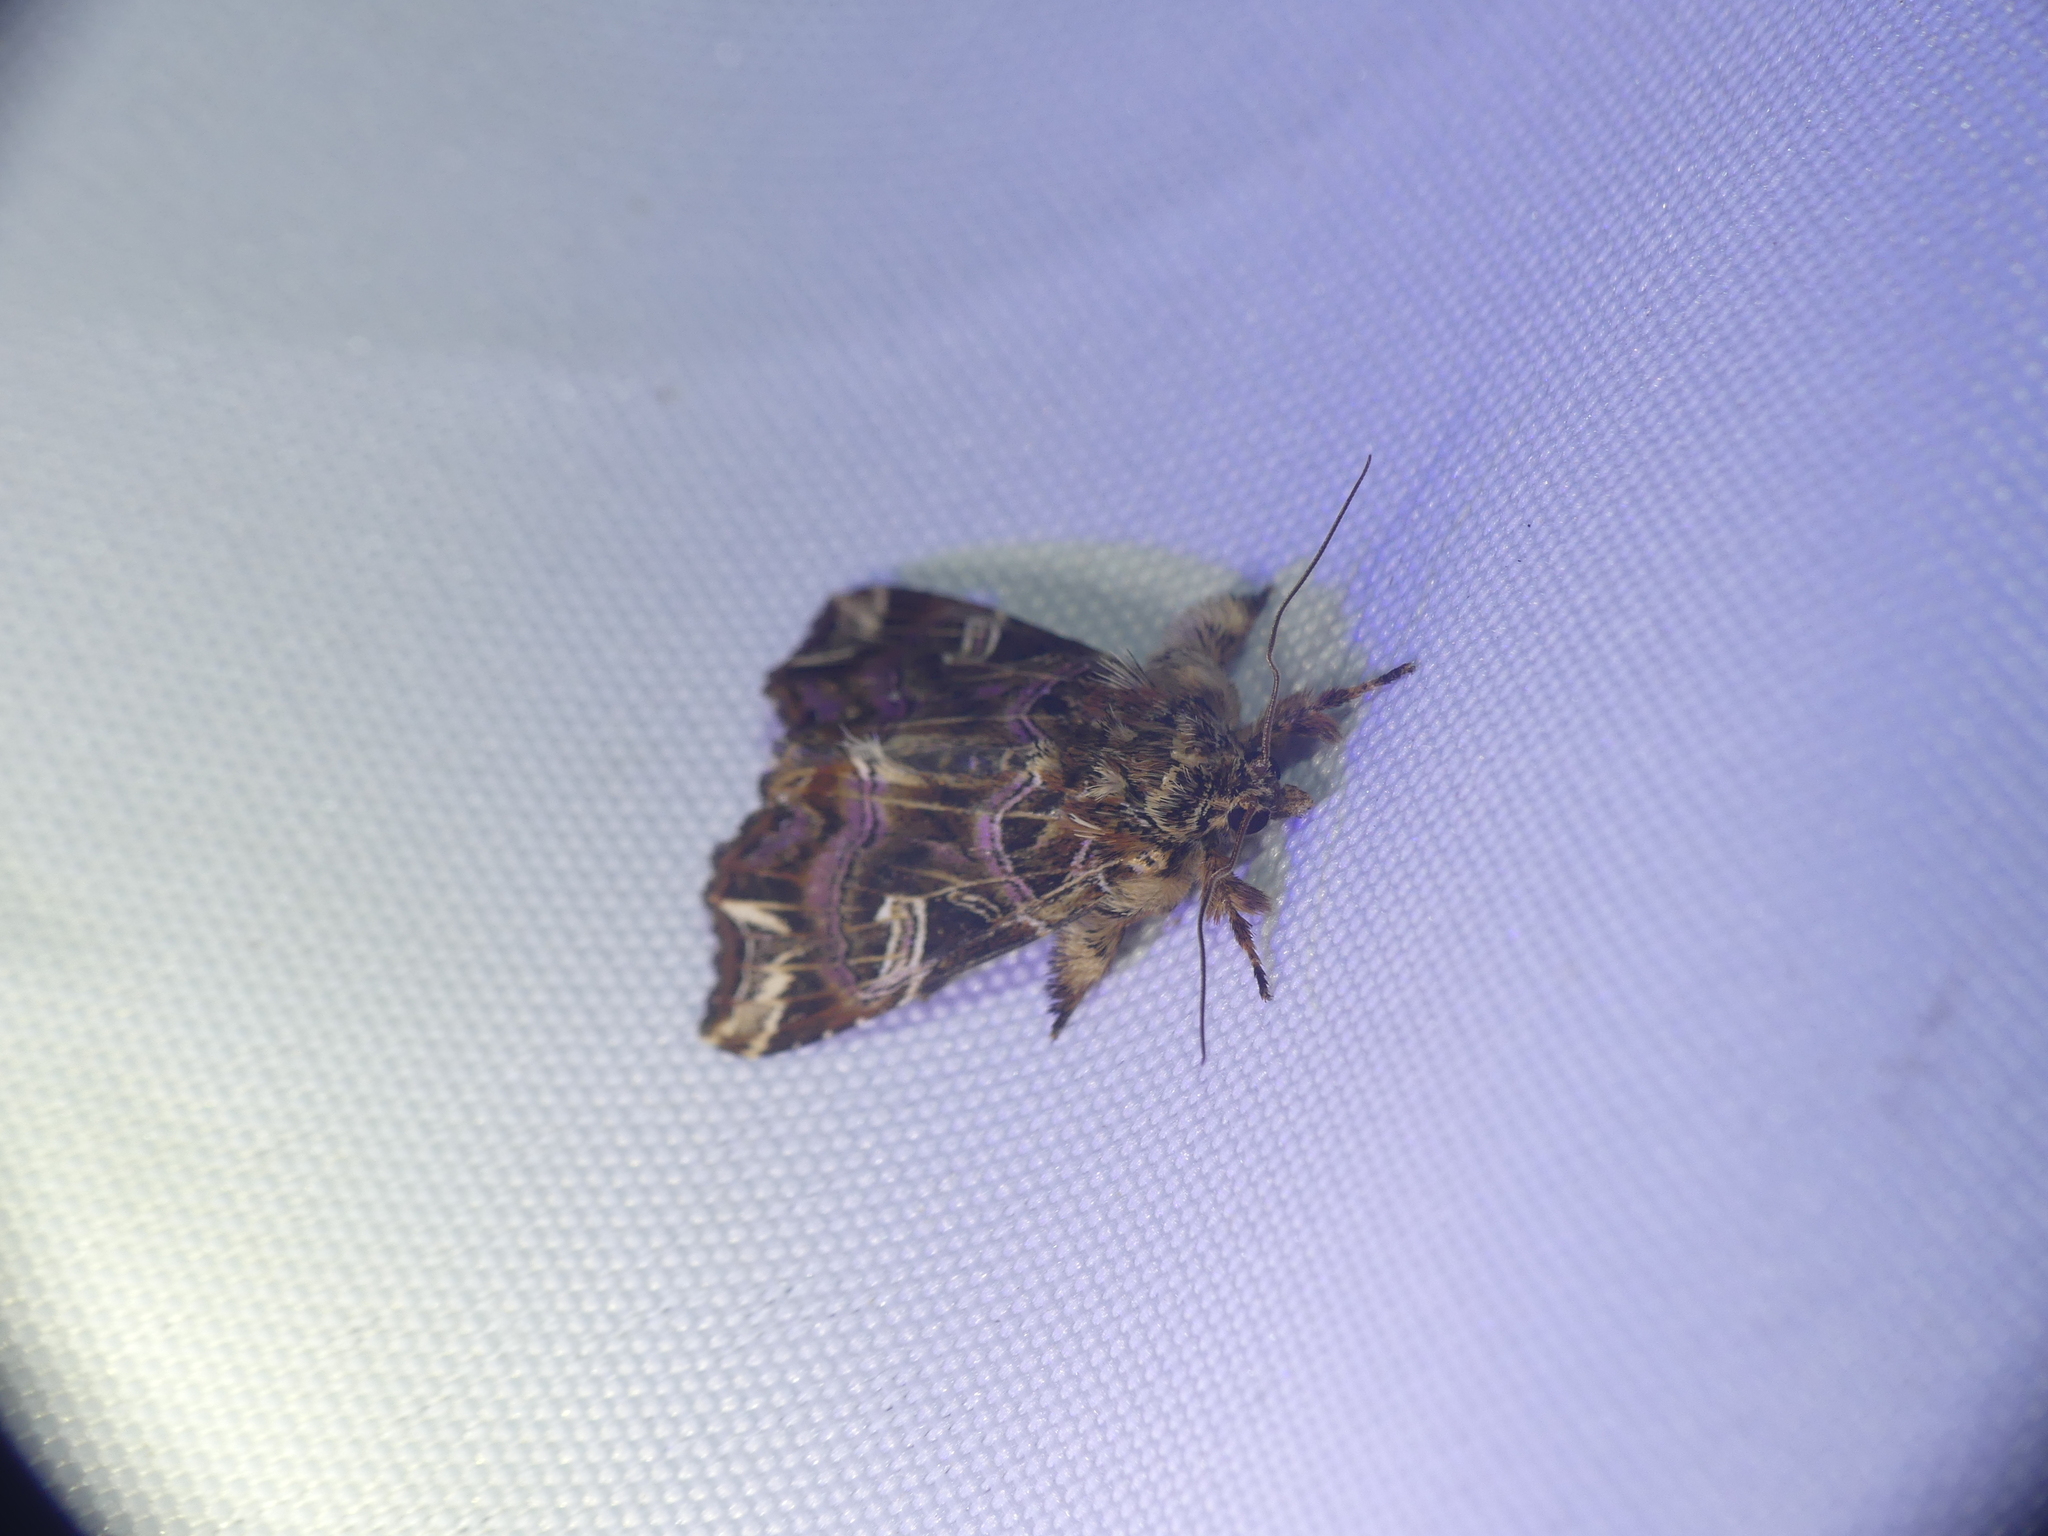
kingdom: Animalia
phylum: Arthropoda
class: Insecta
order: Lepidoptera
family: Noctuidae
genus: Callopistria
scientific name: Callopistria juventina
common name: Latin
